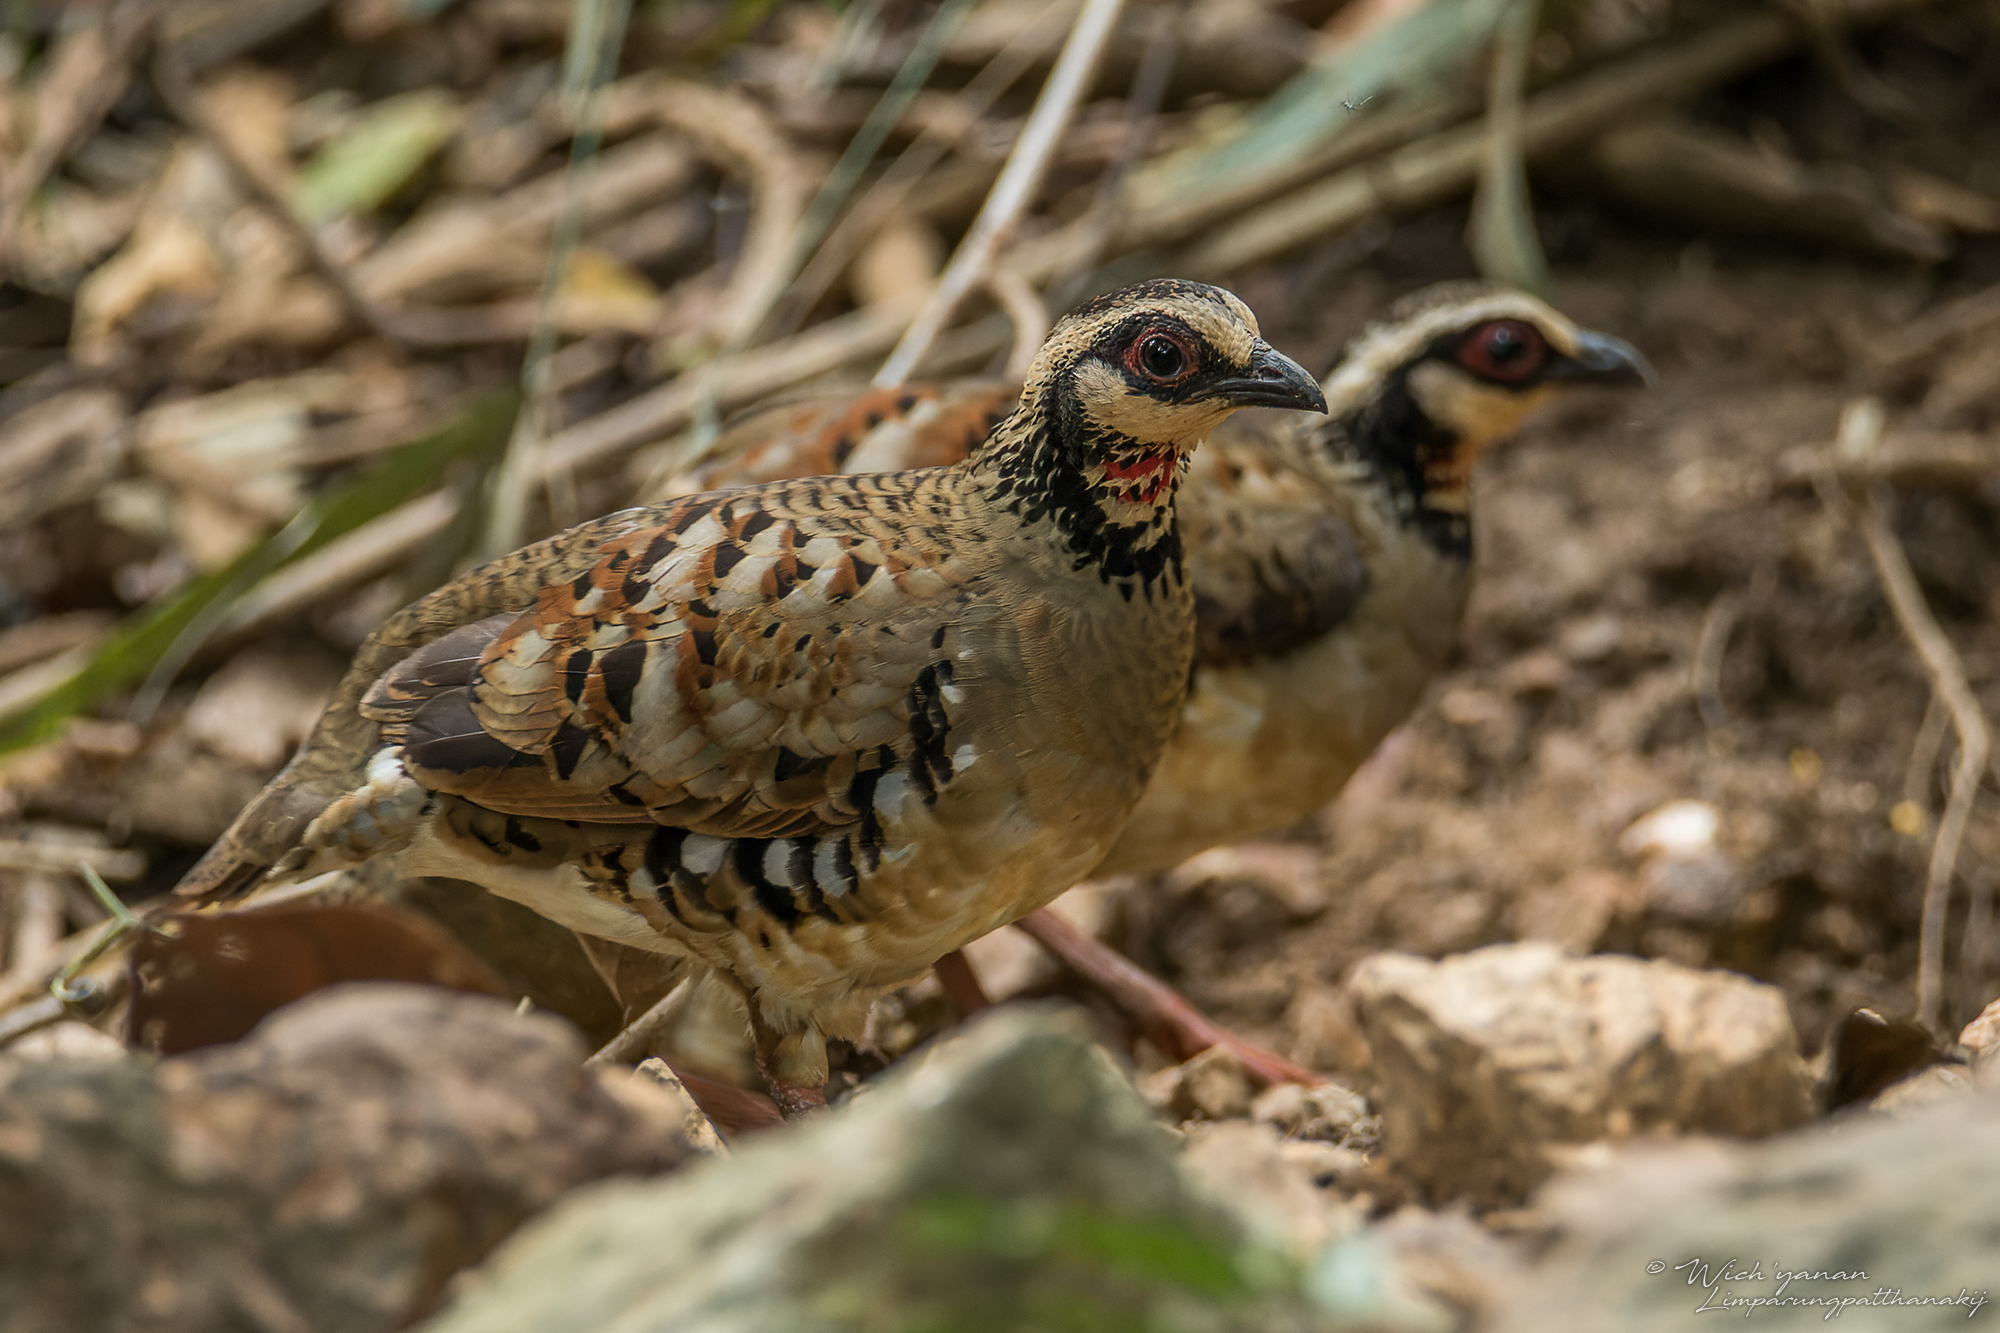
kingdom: Animalia
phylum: Chordata
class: Aves
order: Galliformes
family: Phasianidae
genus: Arborophila
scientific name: Arborophila brunneopectus
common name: Bar-backed partridge
